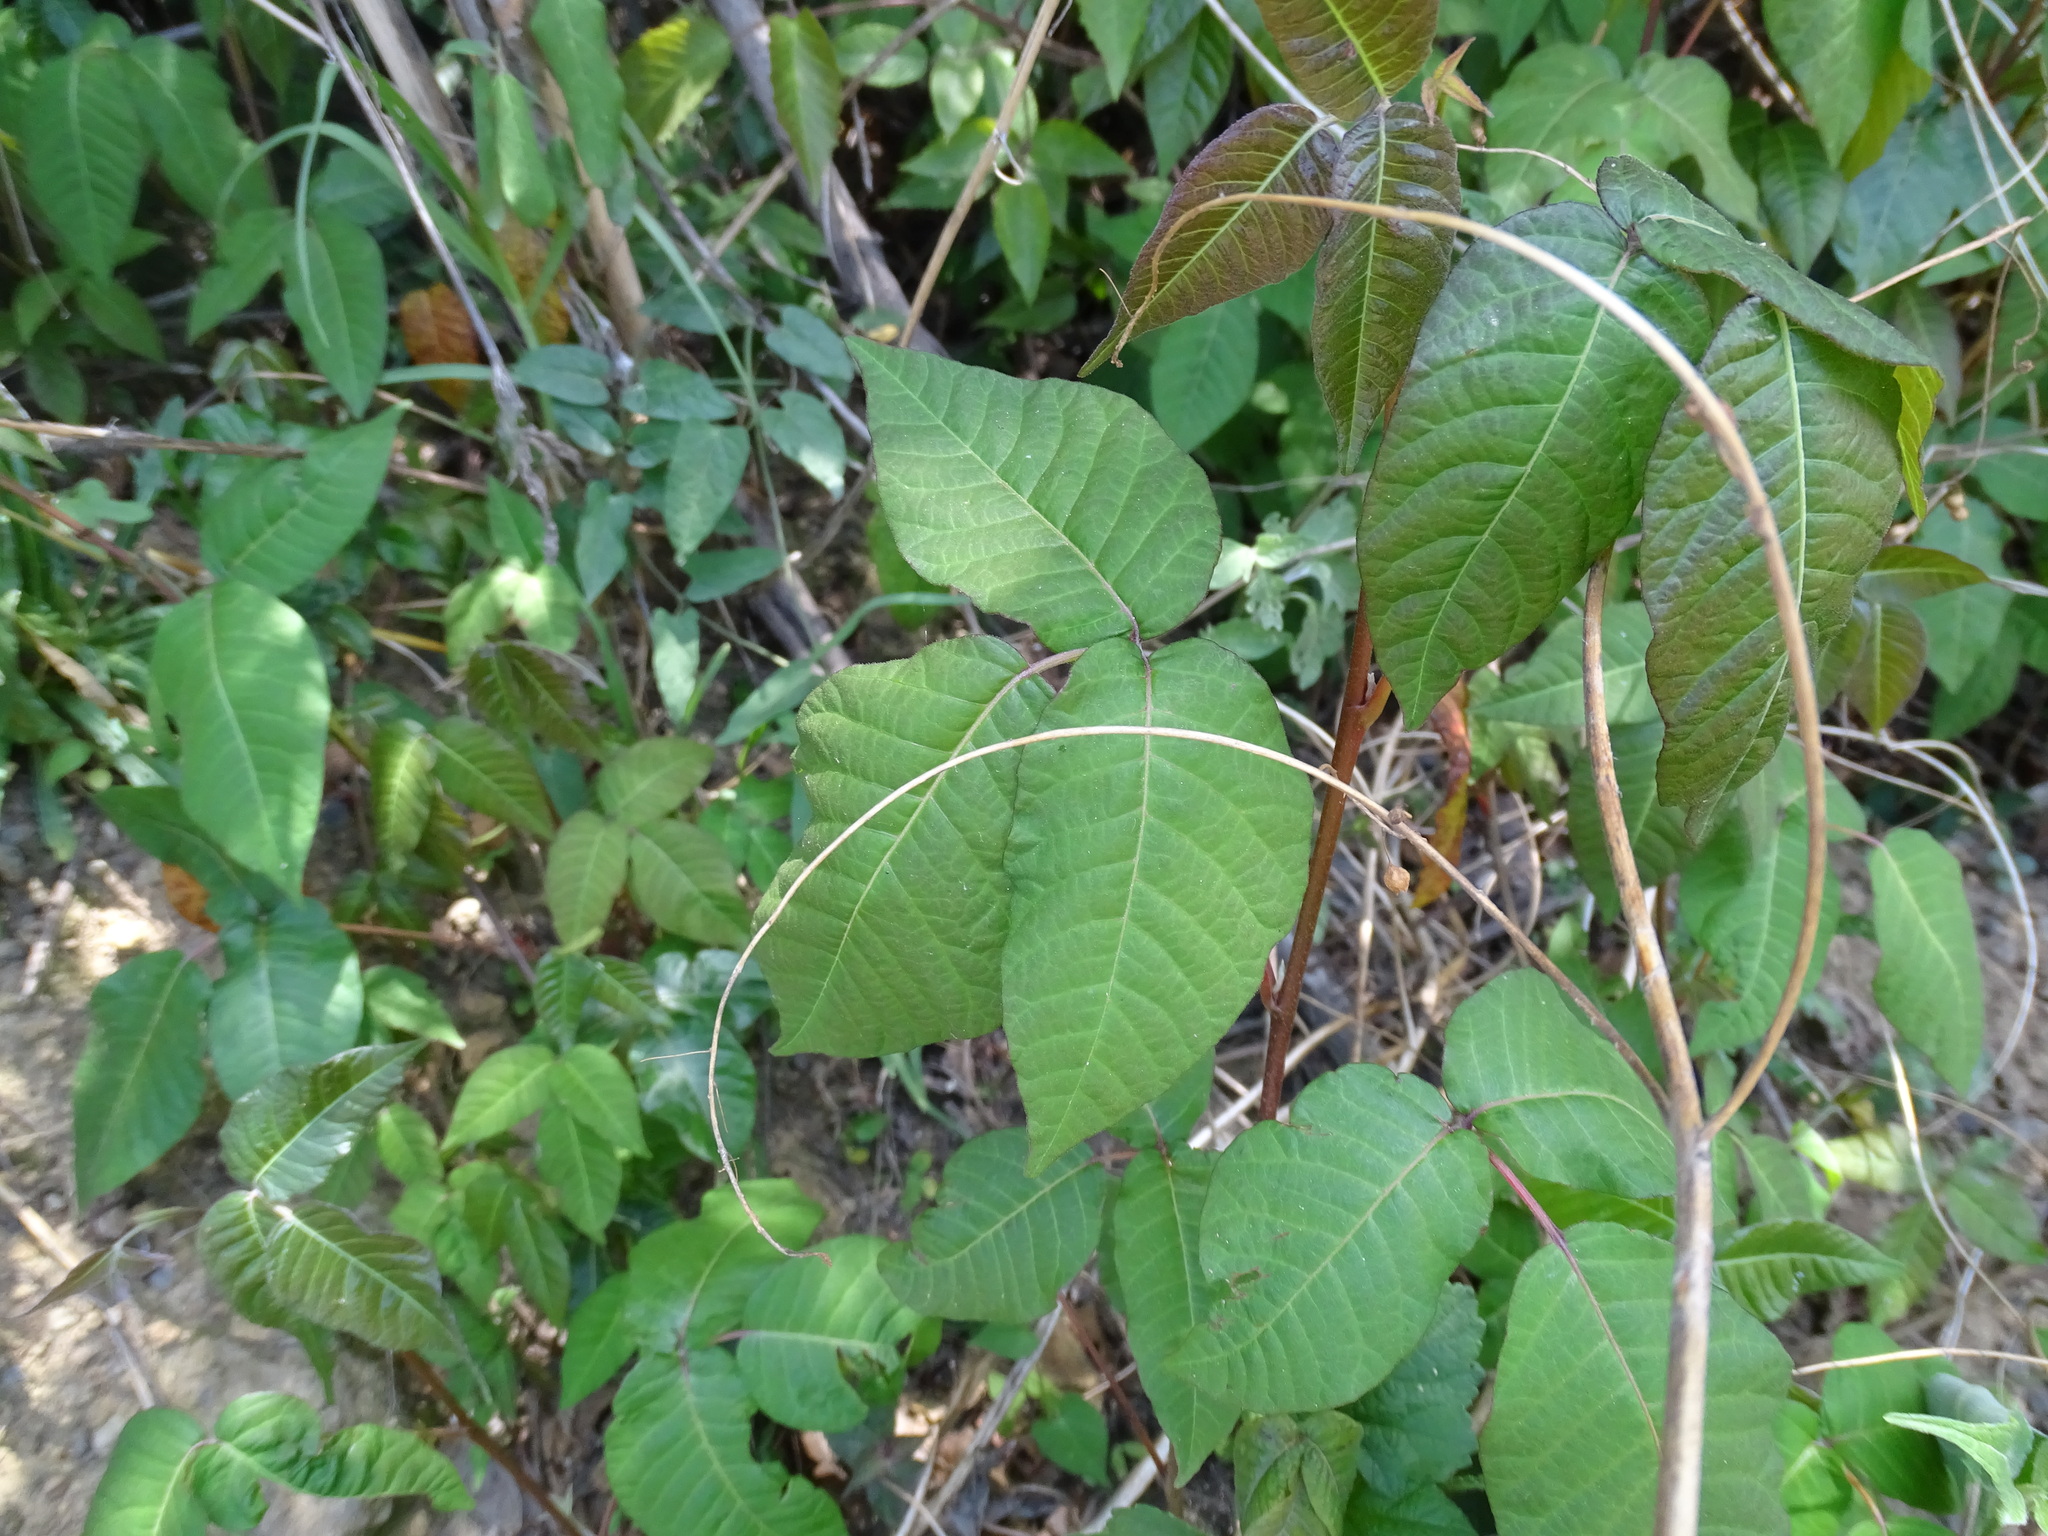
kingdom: Plantae
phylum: Tracheophyta
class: Magnoliopsida
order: Sapindales
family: Anacardiaceae
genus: Toxicodendron
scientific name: Toxicodendron radicans
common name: Poison ivy
